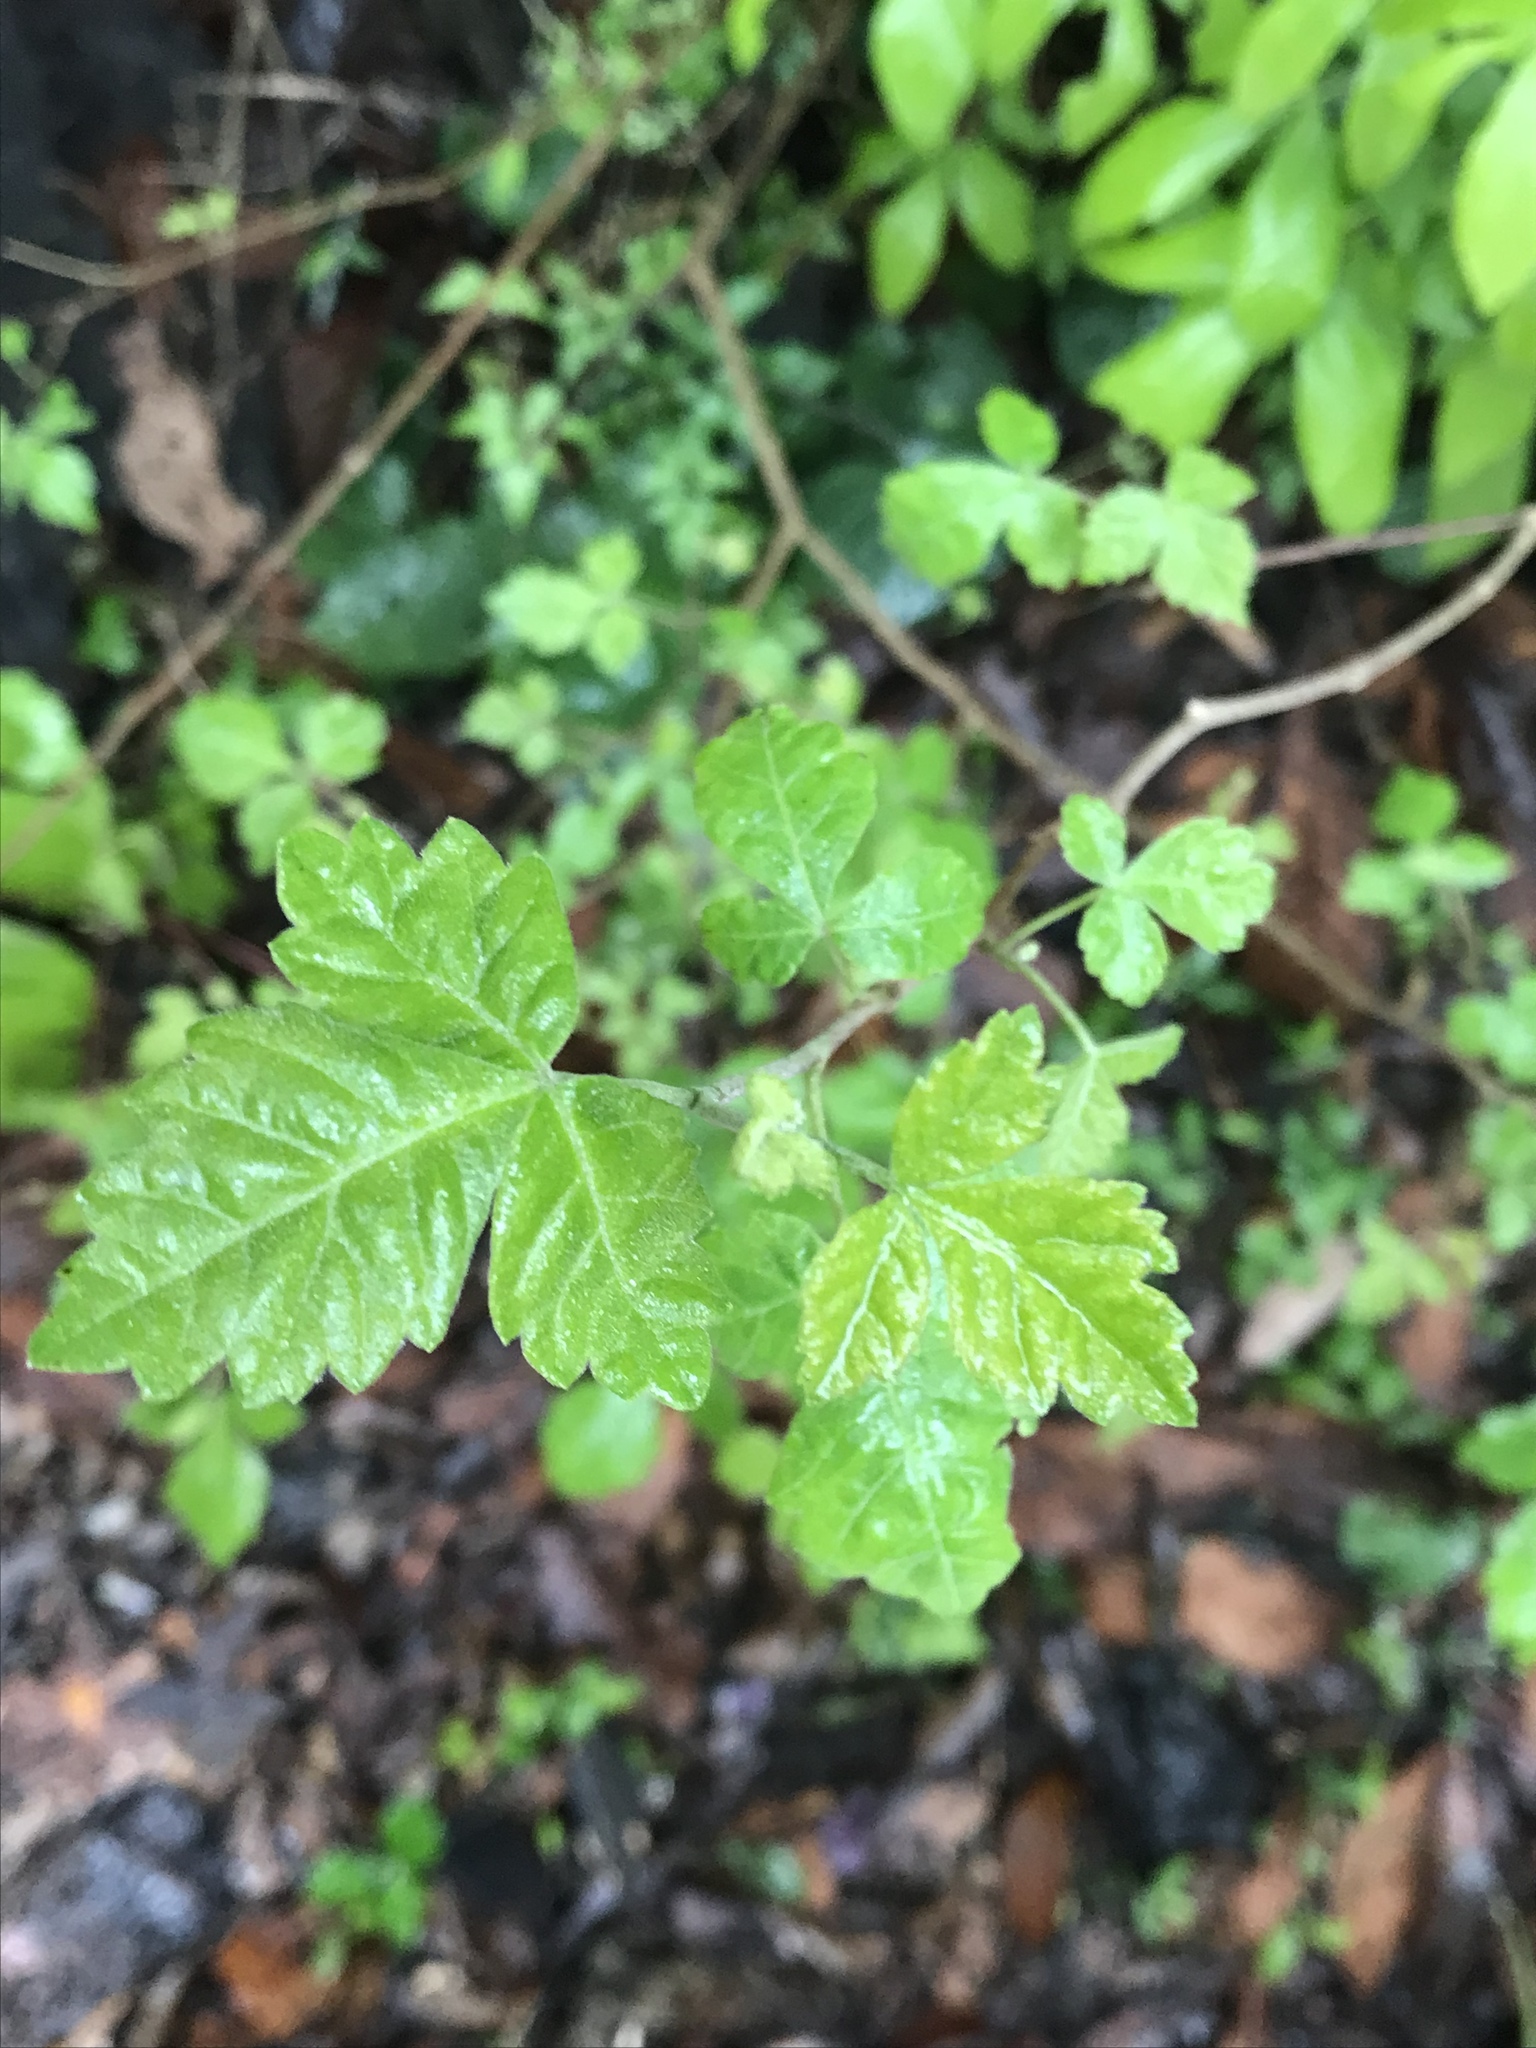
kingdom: Plantae
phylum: Tracheophyta
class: Magnoliopsida
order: Sapindales
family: Anacardiaceae
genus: Rhus
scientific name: Rhus aromatica
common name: Aromatic sumac
